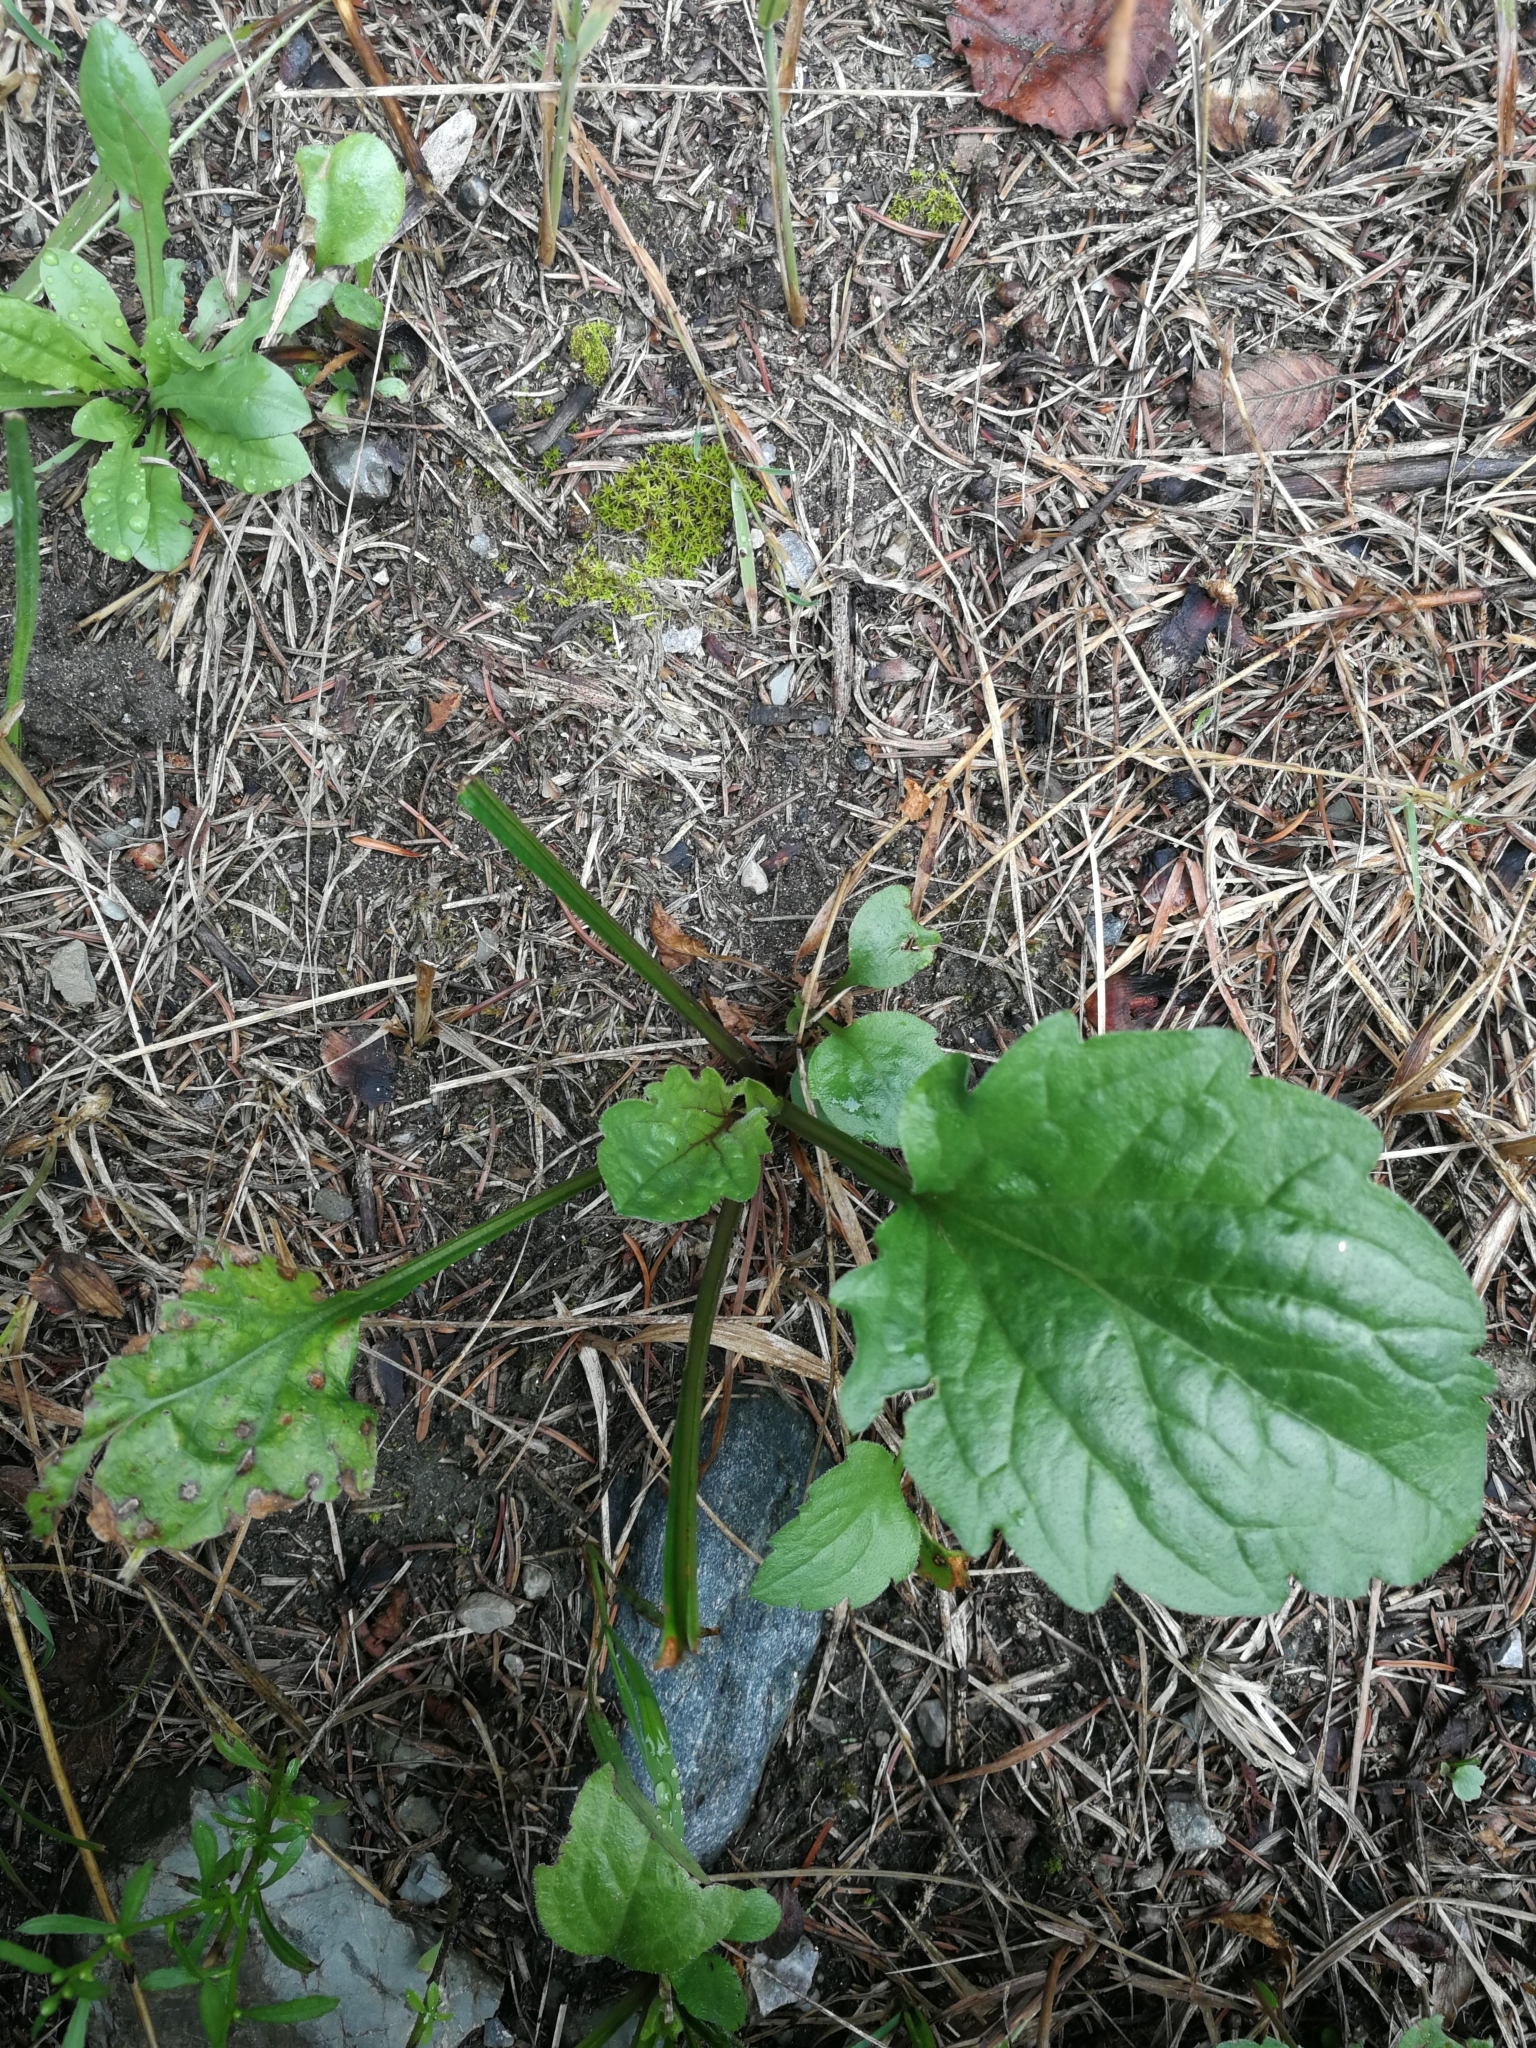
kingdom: Plantae
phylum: Tracheophyta
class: Magnoliopsida
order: Asterales
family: Asteraceae
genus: Erigeron
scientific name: Erigeron annuus
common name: Tall fleabane
